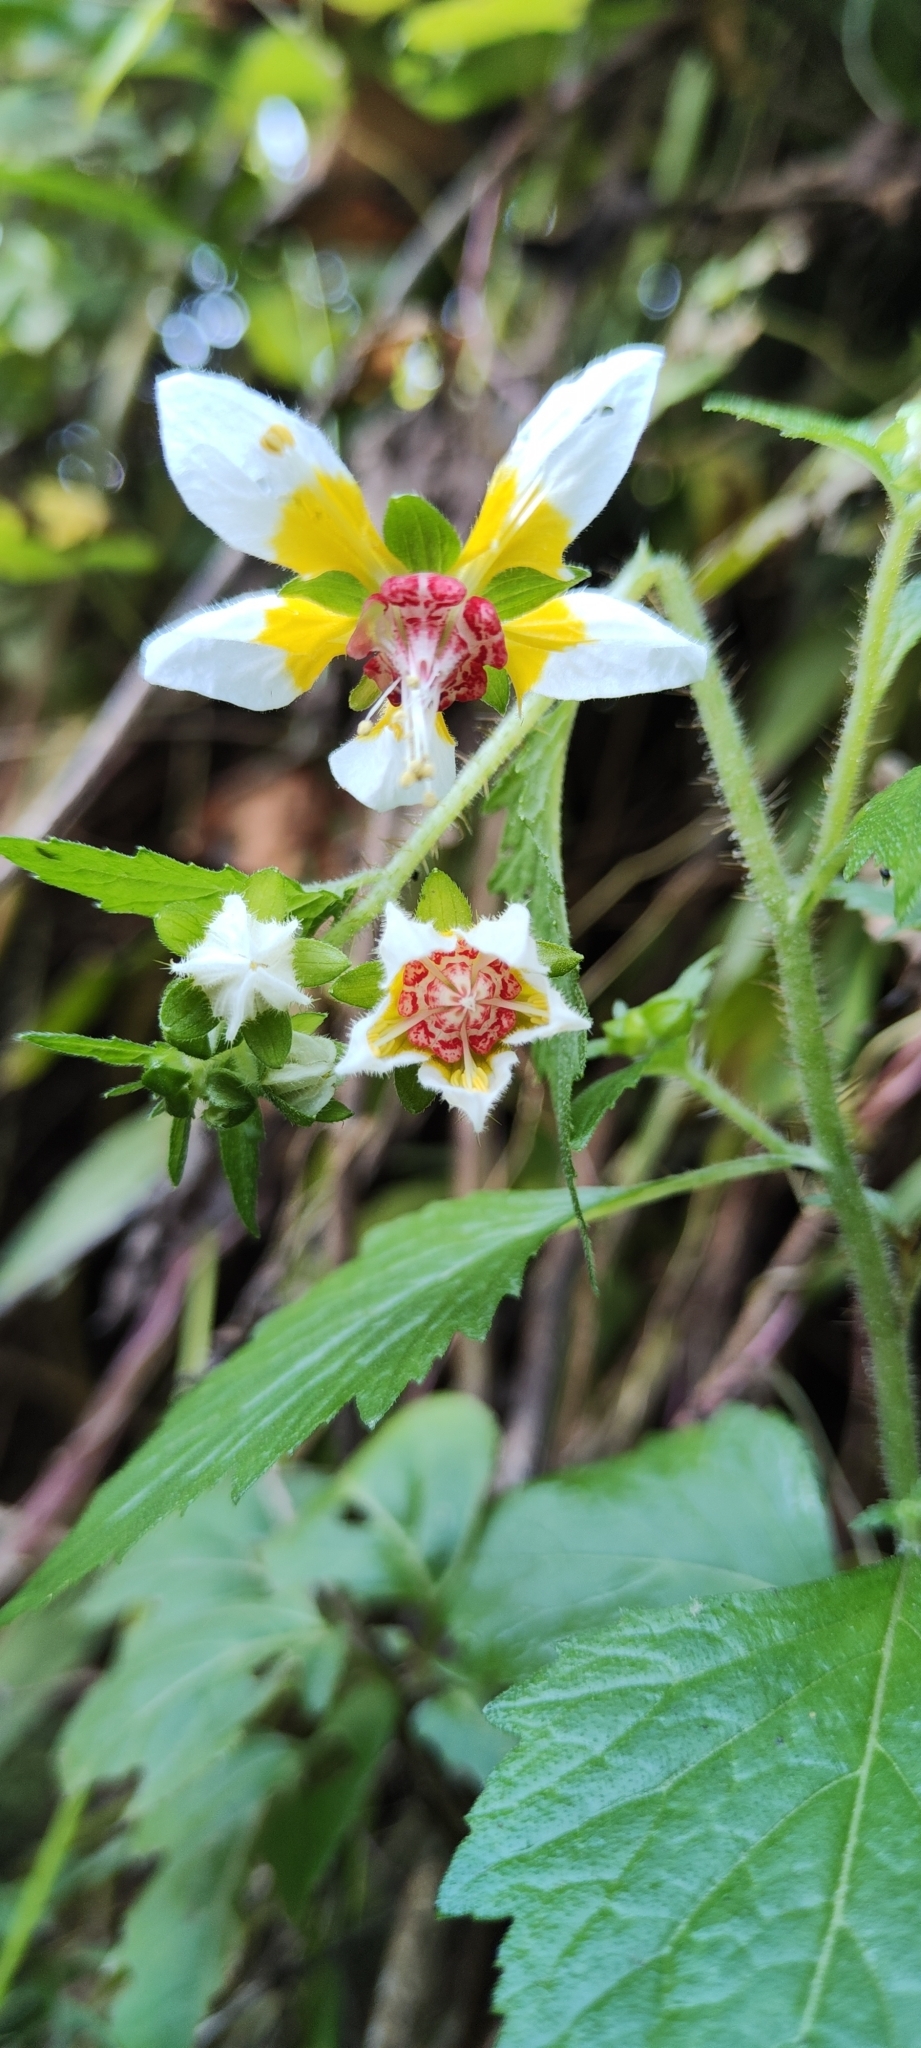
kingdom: Plantae
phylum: Tracheophyta
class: Magnoliopsida
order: Cornales
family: Loasaceae
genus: Nasa
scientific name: Nasa picta
